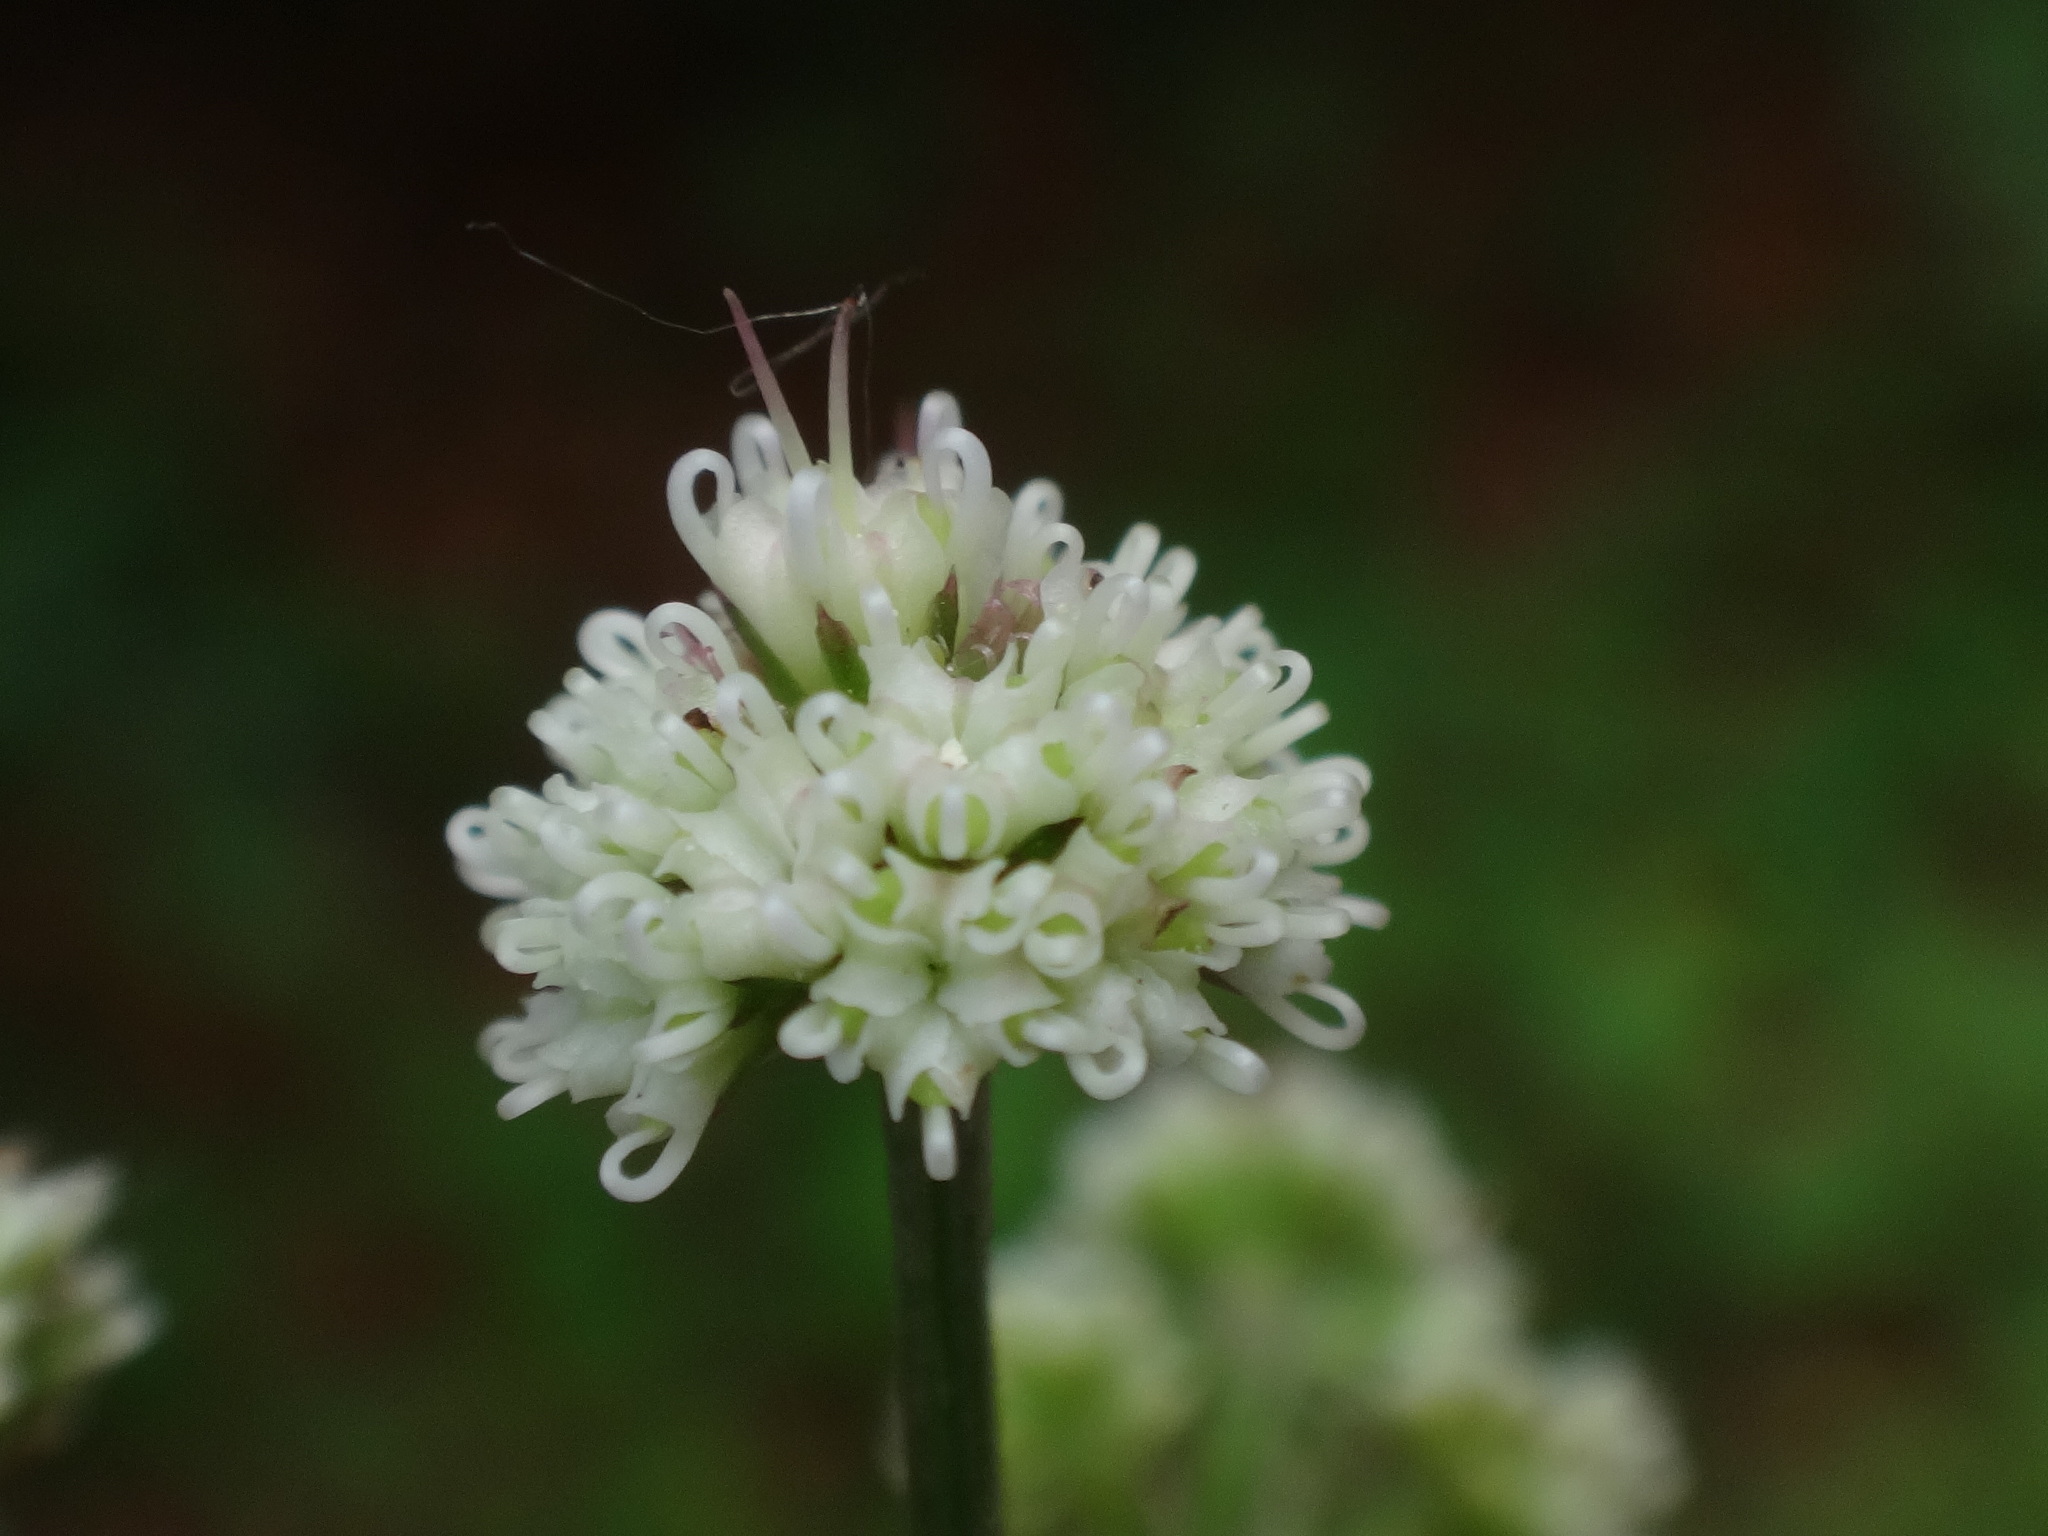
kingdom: Plantae
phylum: Tracheophyta
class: Magnoliopsida
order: Apiales
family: Apiaceae
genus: Sanicula
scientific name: Sanicula europaea
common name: Sanicle
